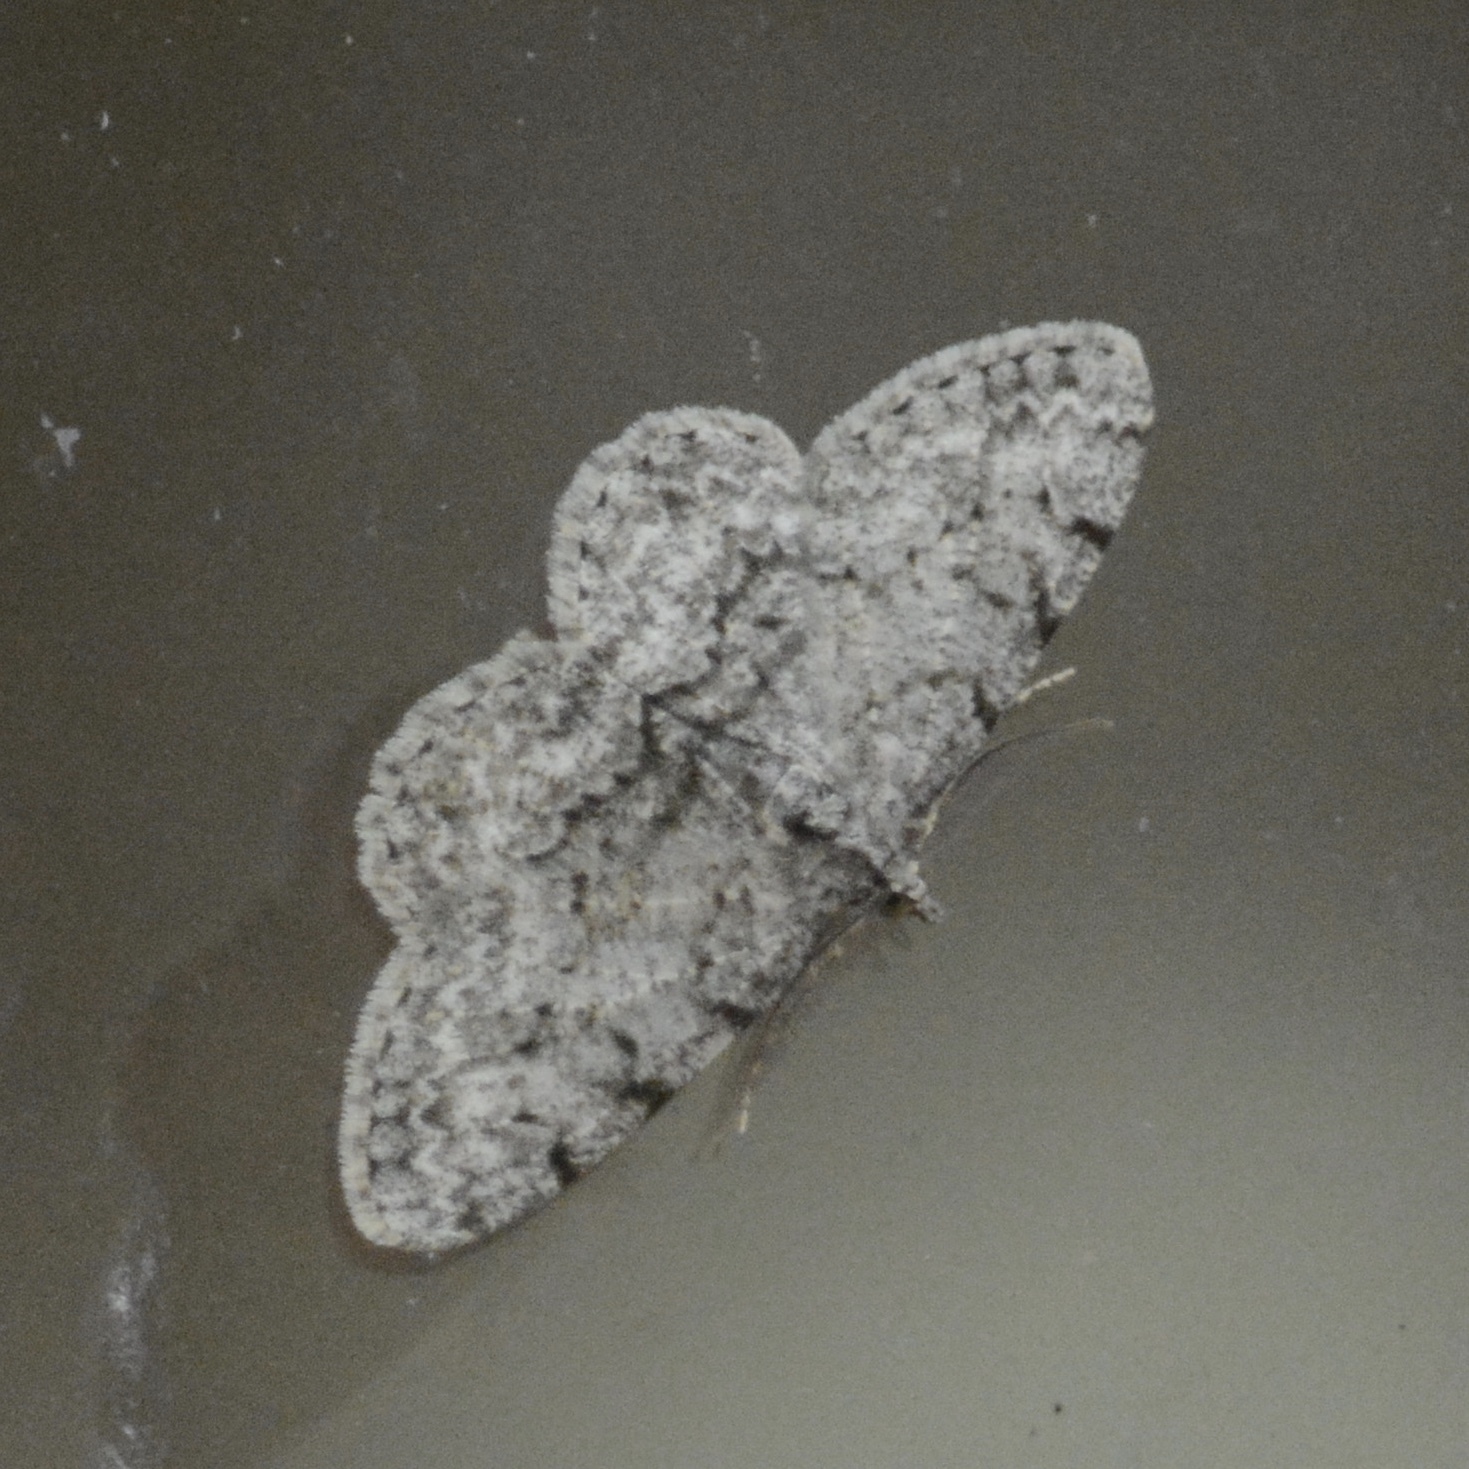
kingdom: Animalia
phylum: Arthropoda
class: Insecta
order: Lepidoptera
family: Geometridae
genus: Protoboarmia
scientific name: Protoboarmia porcelaria
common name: Porcelain gray
